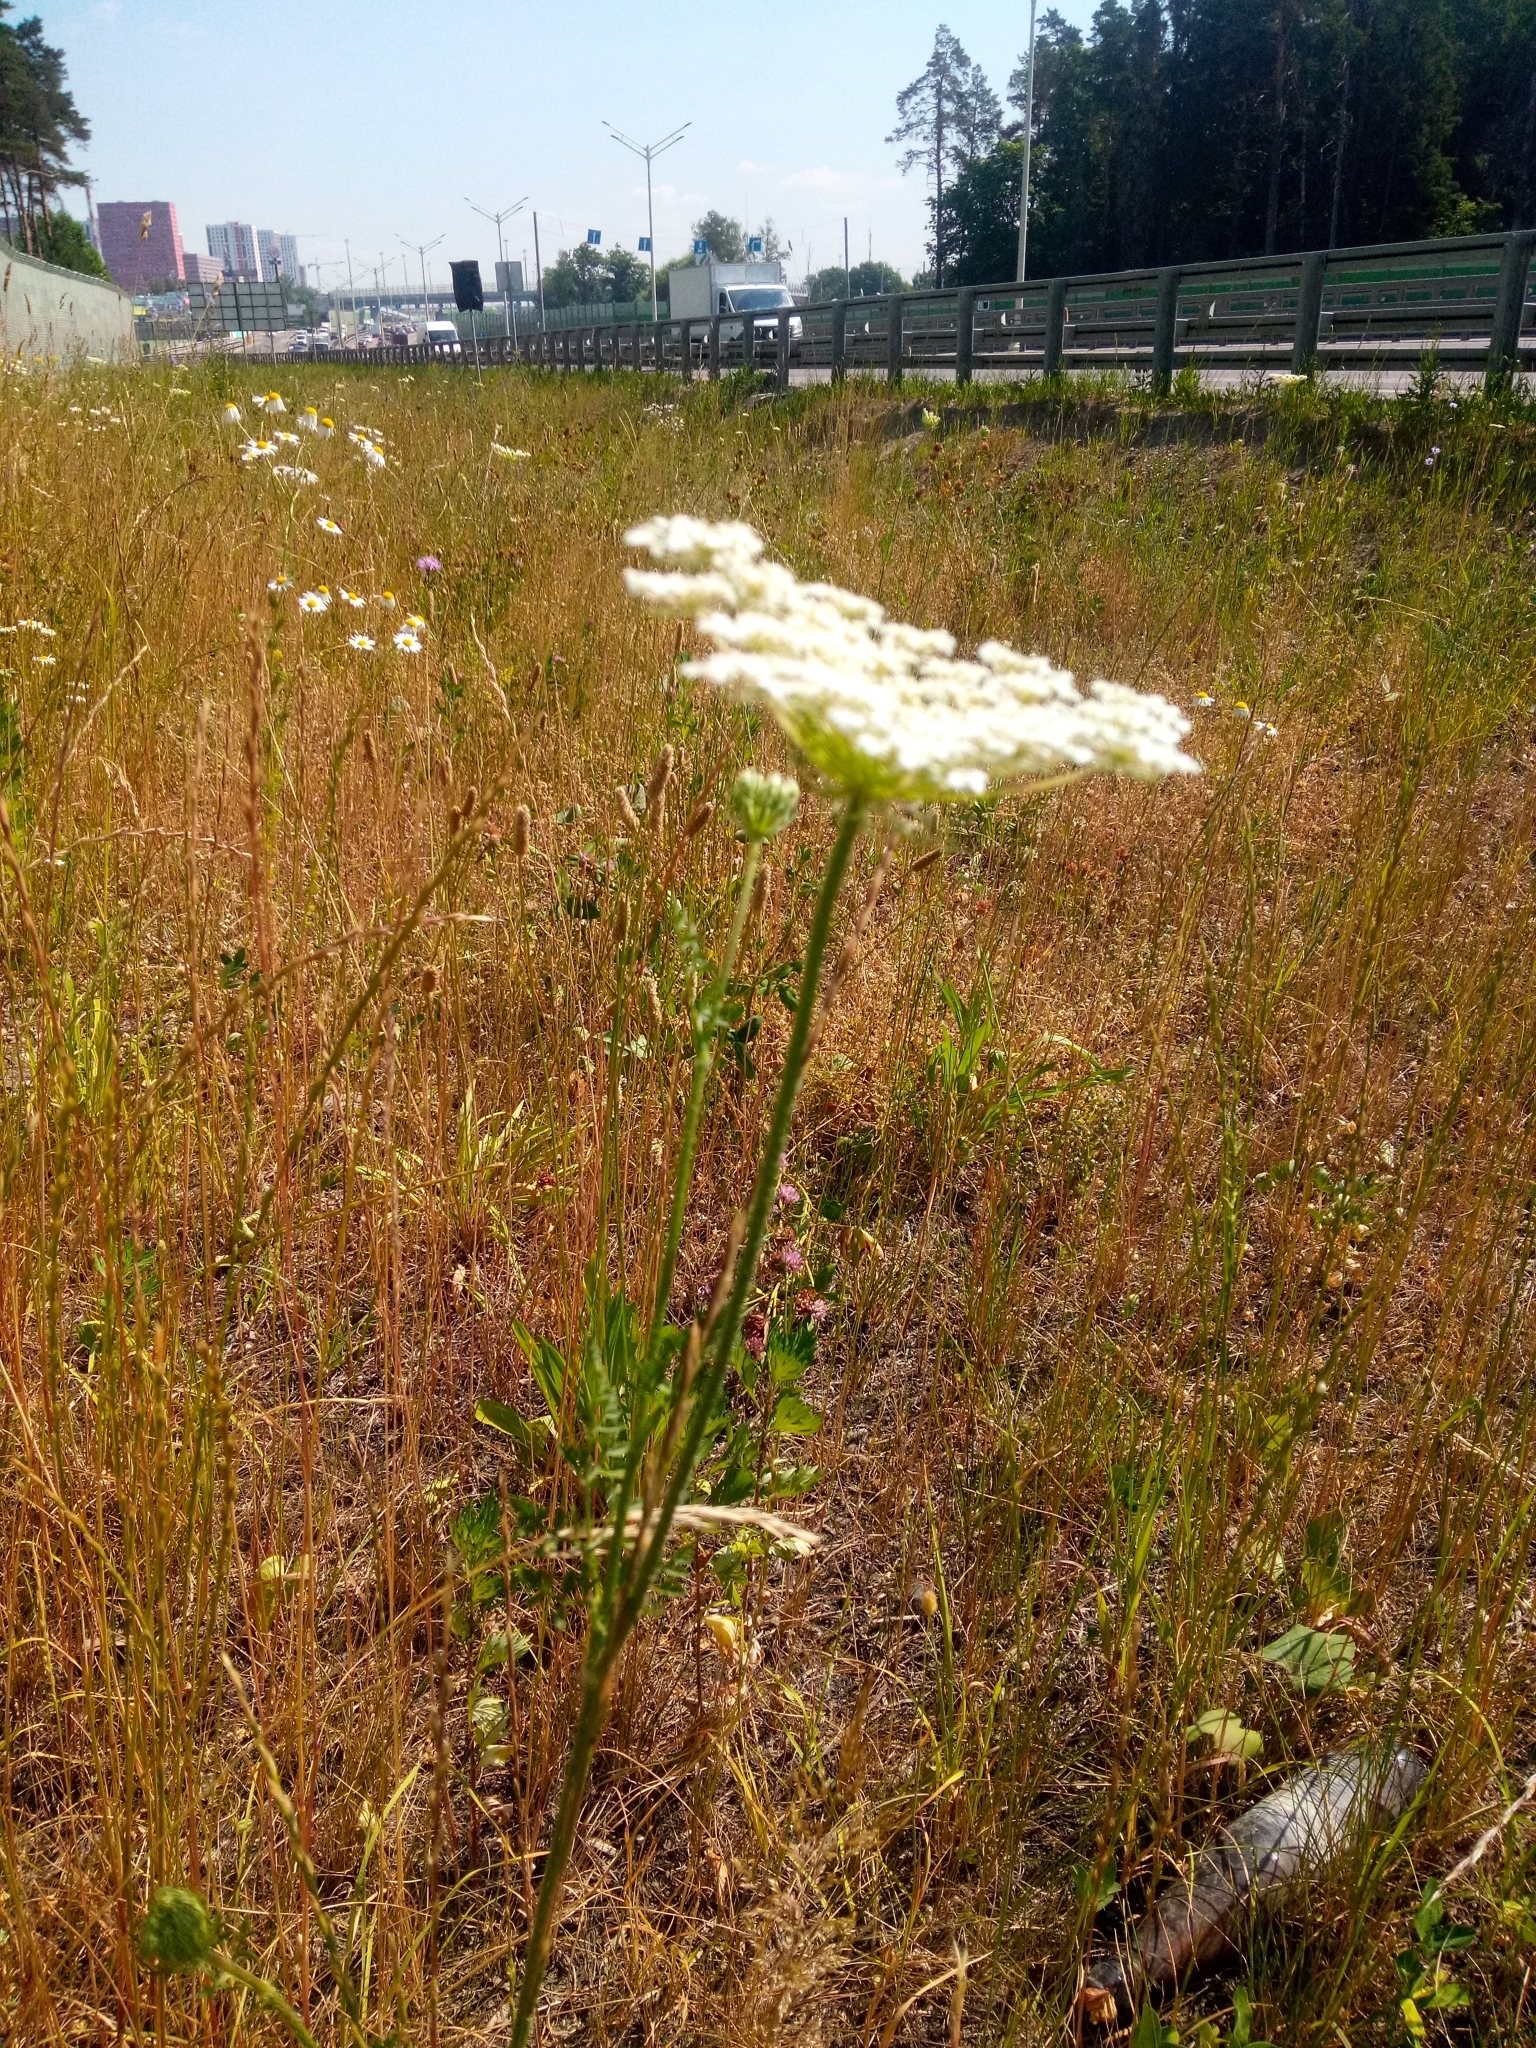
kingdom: Plantae
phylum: Tracheophyta
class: Magnoliopsida
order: Apiales
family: Apiaceae
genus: Daucus
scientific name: Daucus carota
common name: Wild carrot
